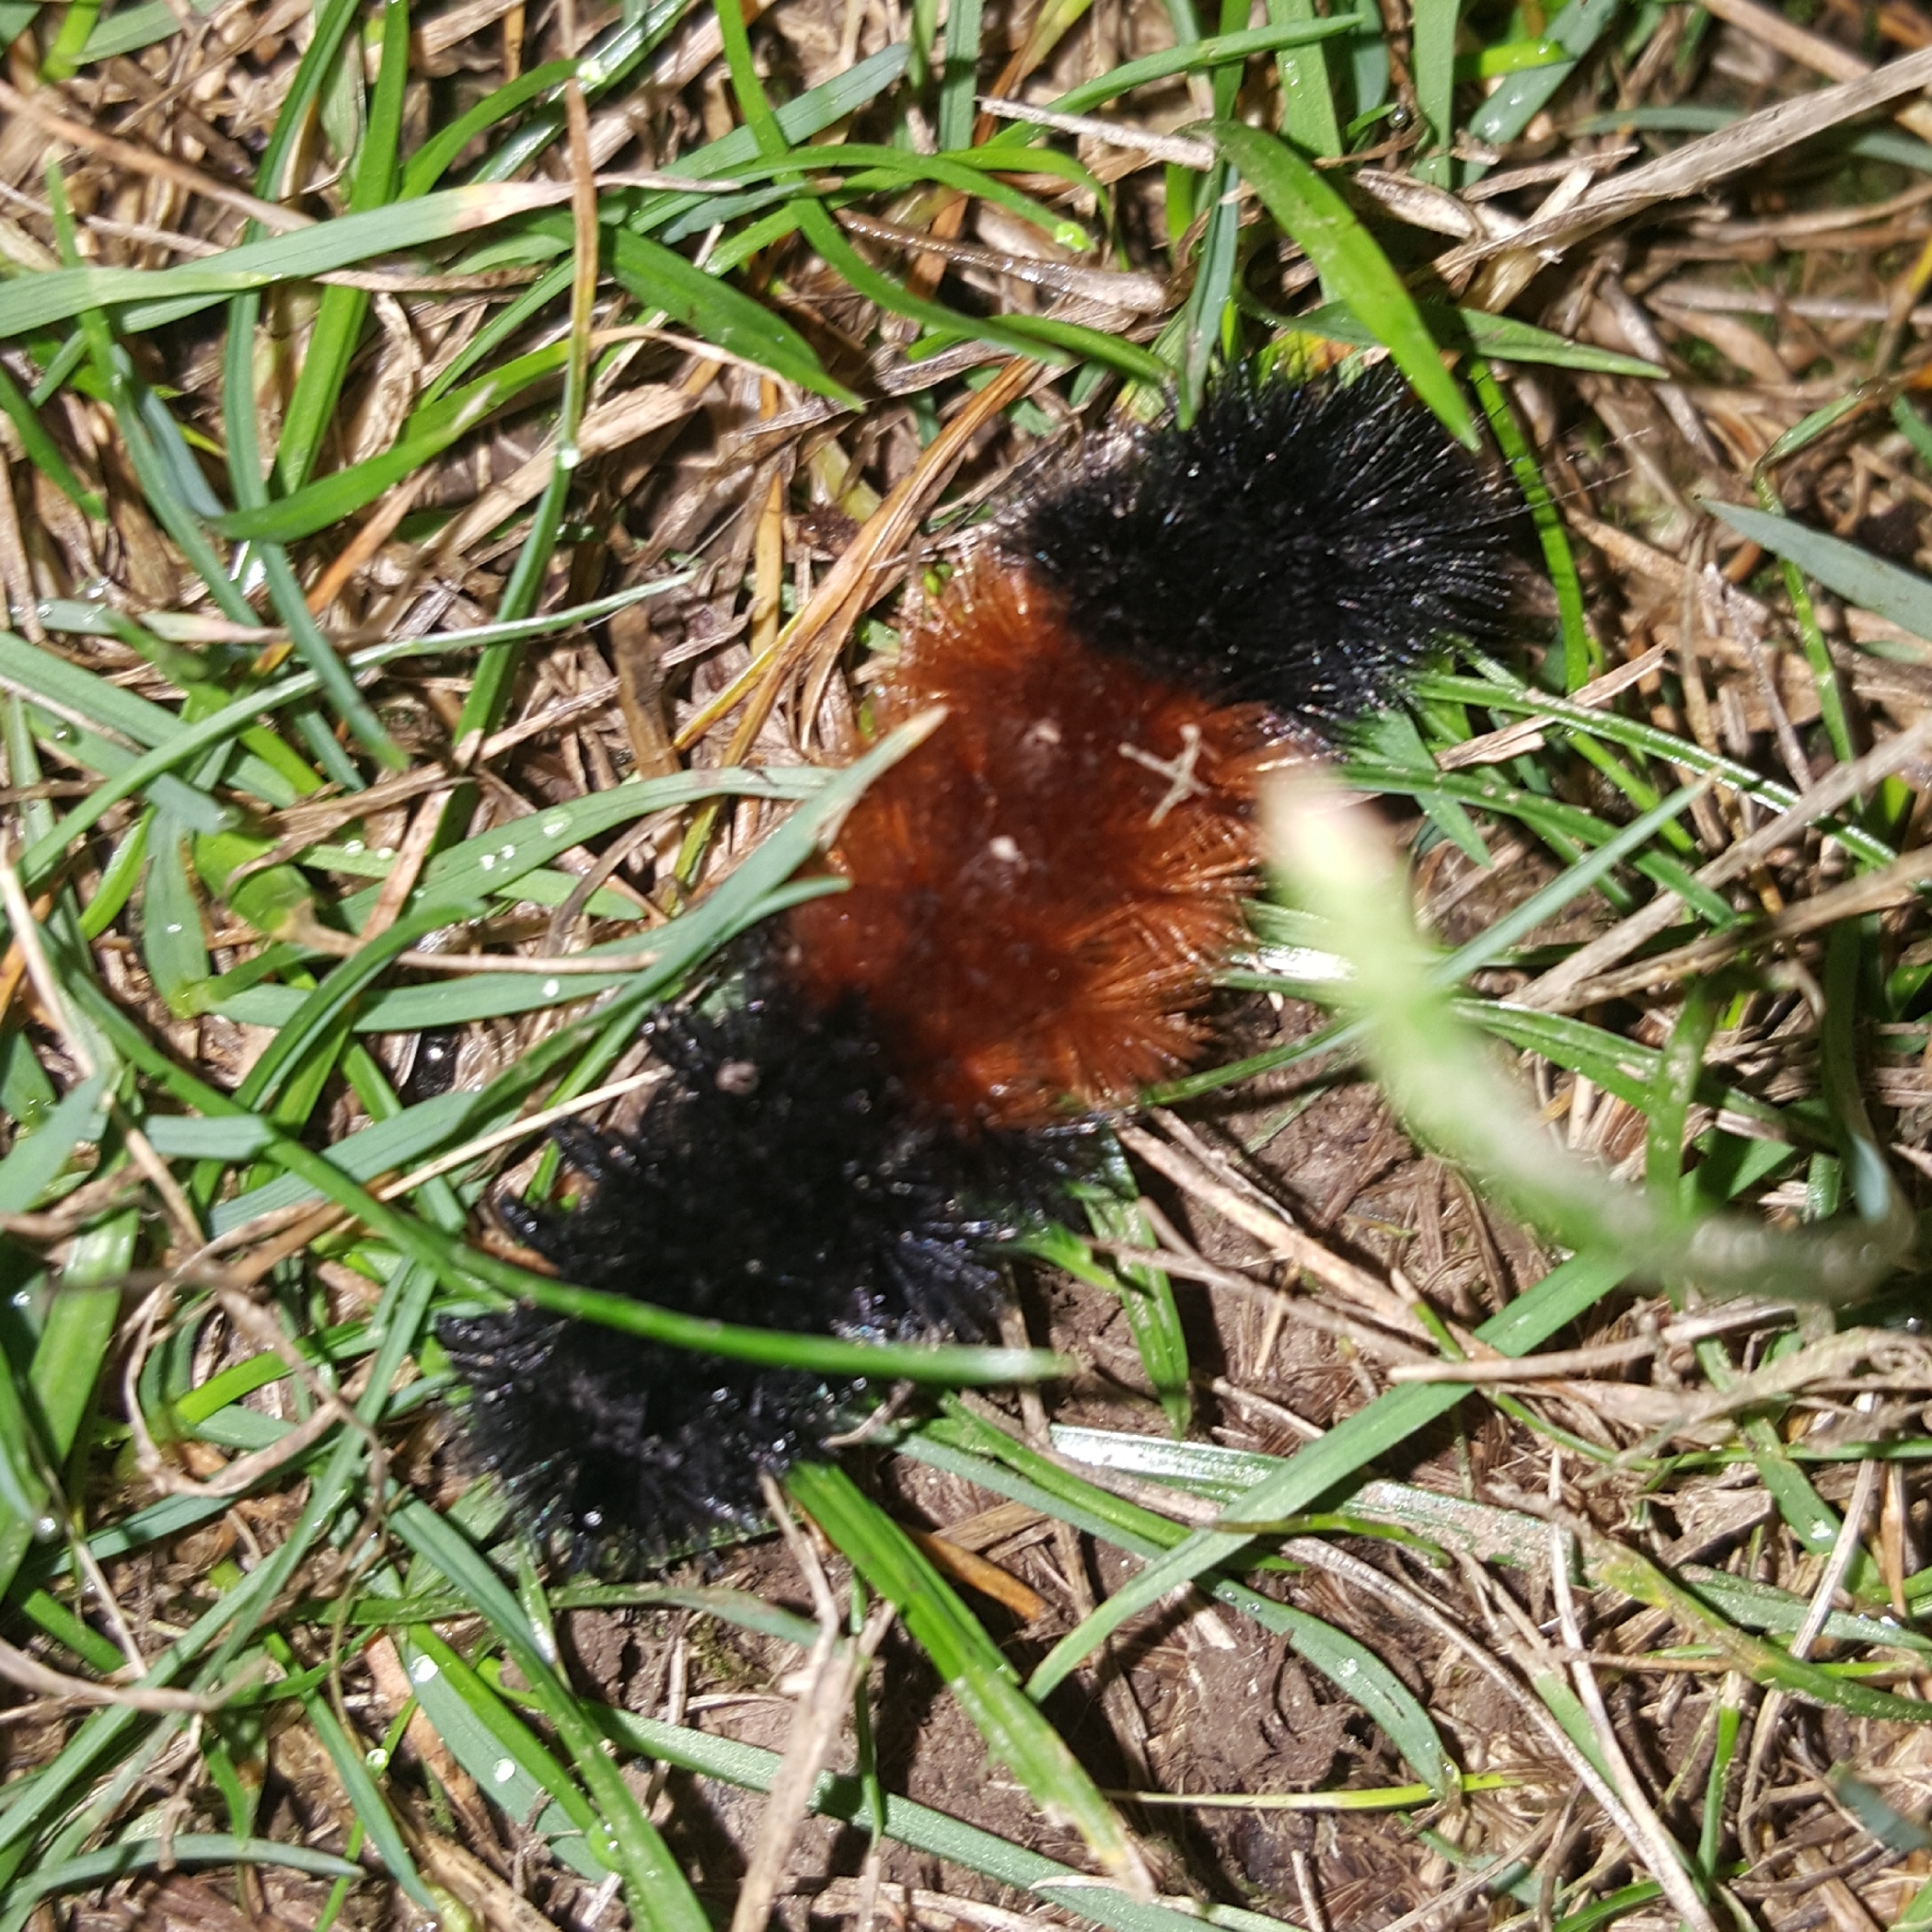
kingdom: Animalia
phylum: Arthropoda
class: Insecta
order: Lepidoptera
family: Erebidae
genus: Pyrrharctia
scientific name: Pyrrharctia isabella
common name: Isabella tiger moth
